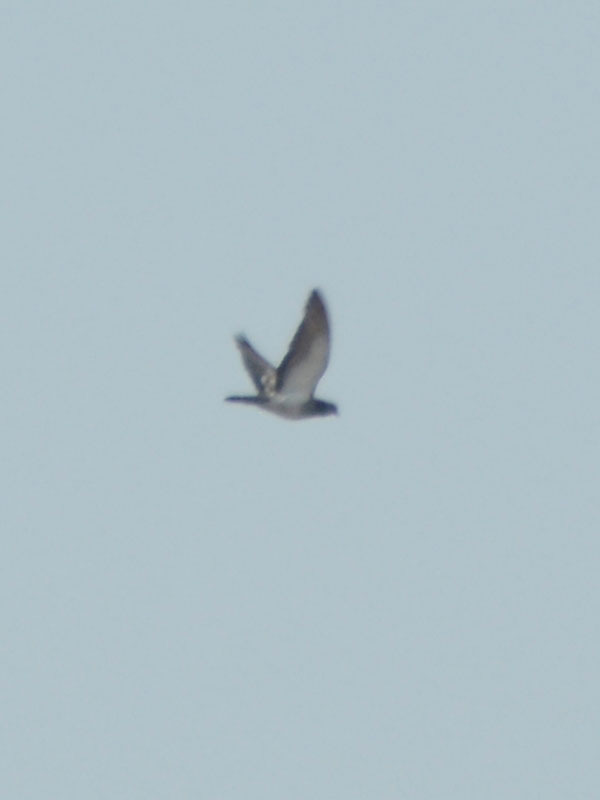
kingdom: Animalia
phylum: Chordata
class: Aves
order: Columbiformes
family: Columbidae
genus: Columba
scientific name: Columba livia
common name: Rock pigeon
